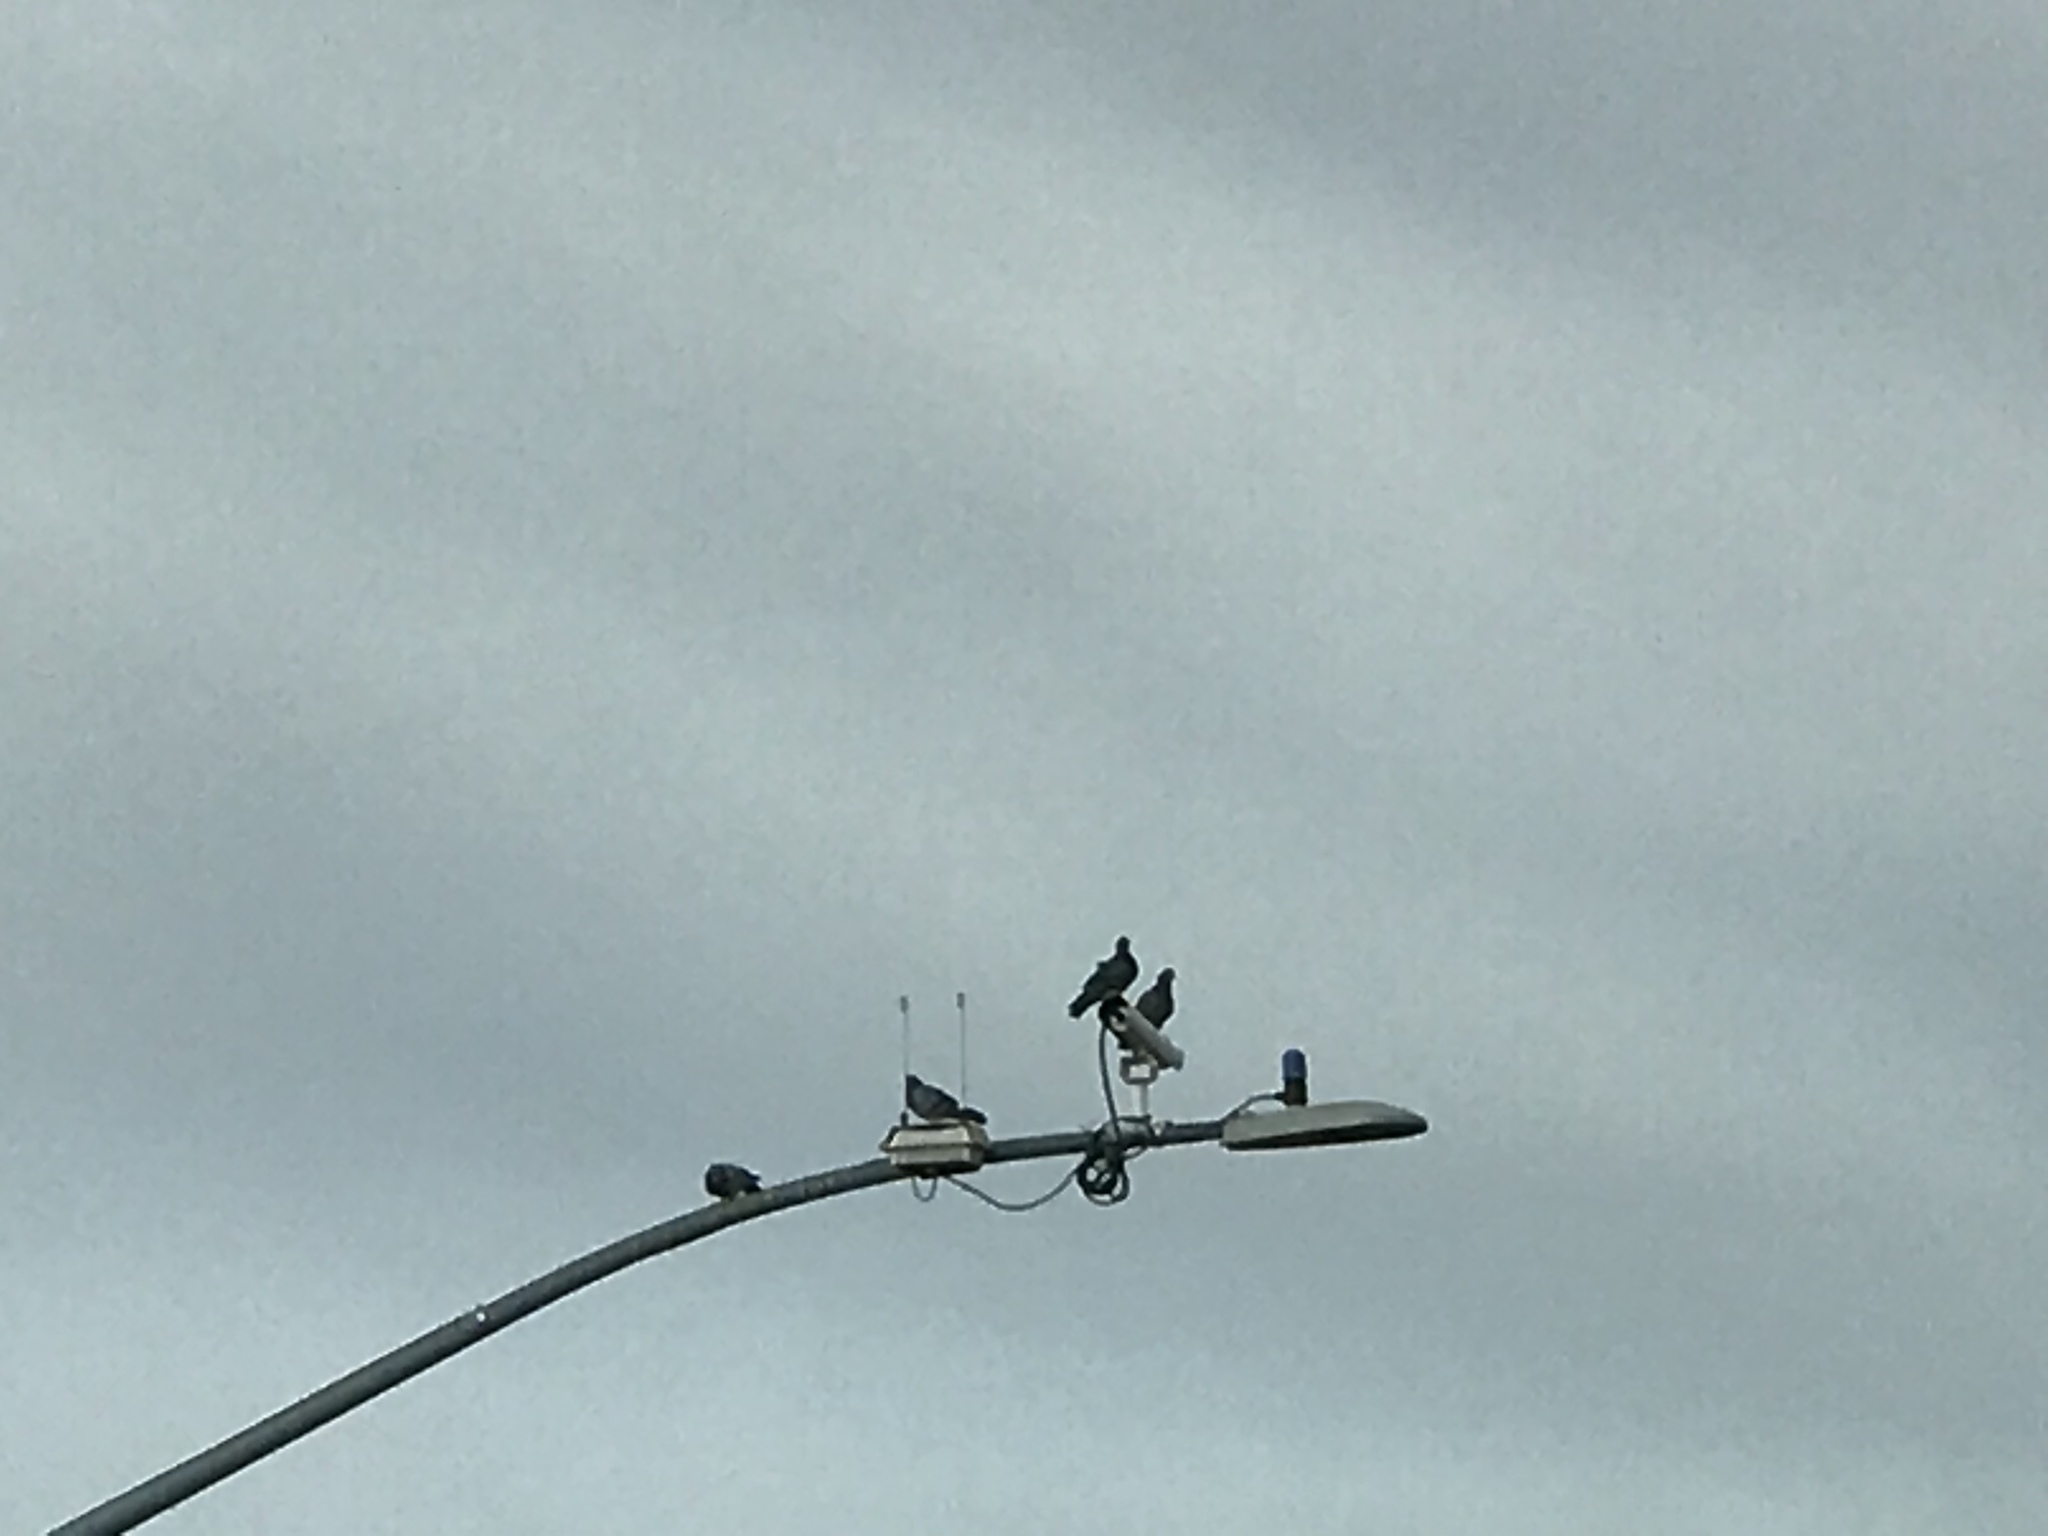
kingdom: Animalia
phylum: Chordata
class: Aves
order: Columbiformes
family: Columbidae
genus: Columba
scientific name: Columba livia
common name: Rock pigeon
